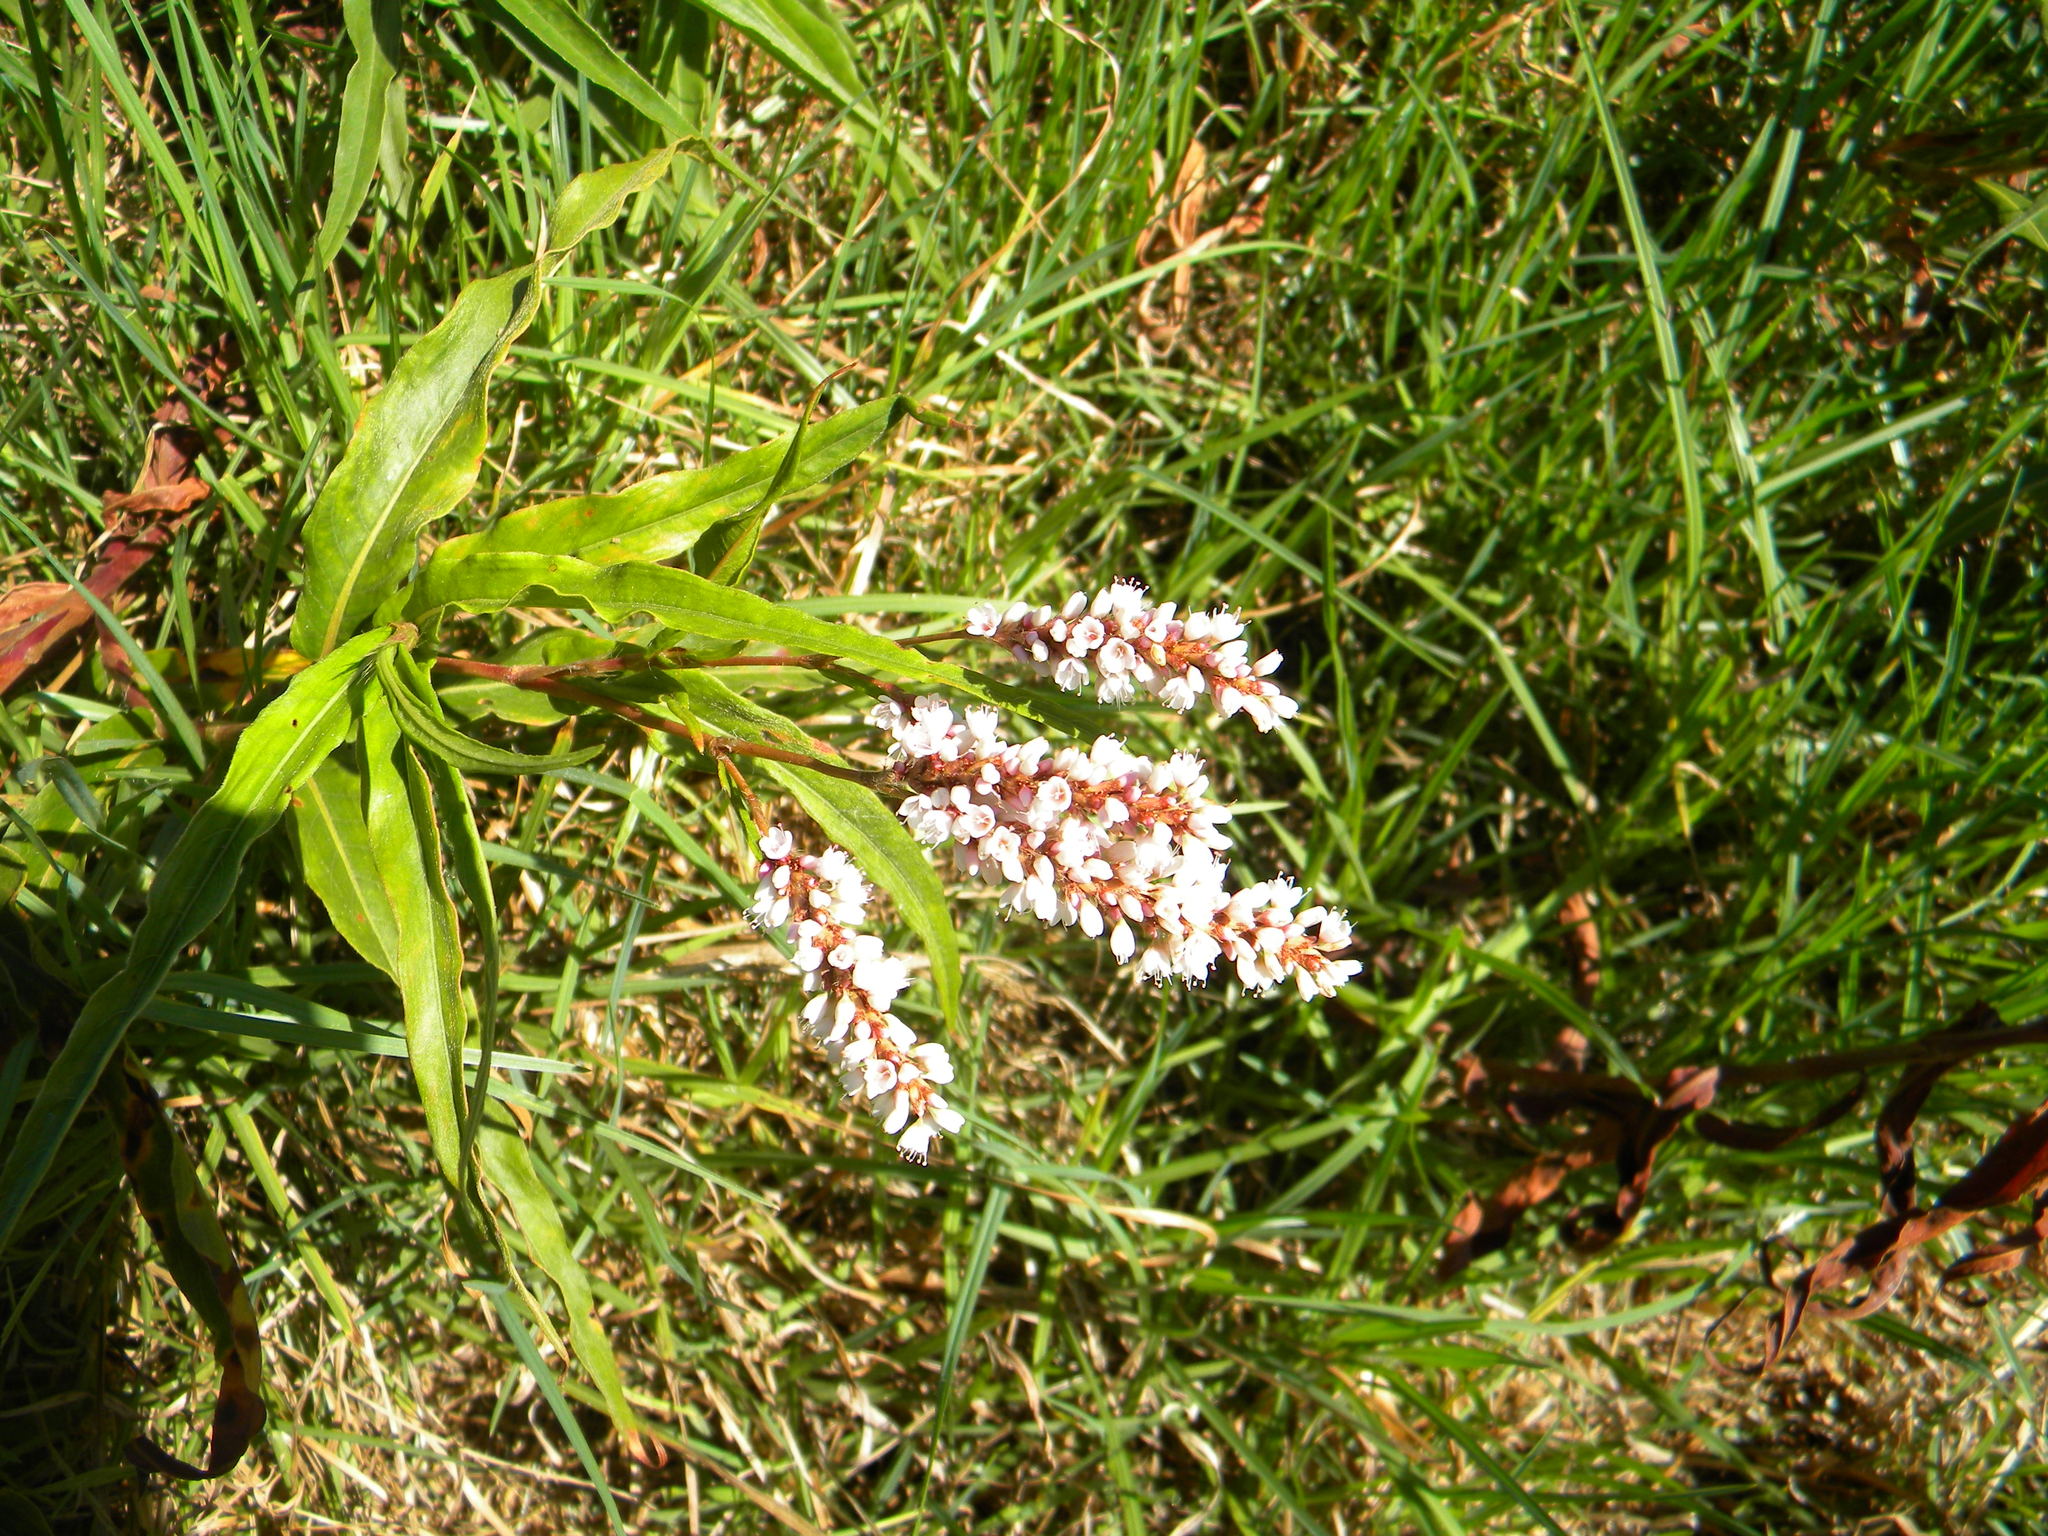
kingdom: Plantae
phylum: Tracheophyta
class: Magnoliopsida
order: Caryophyllales
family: Polygonaceae
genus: Persicaria
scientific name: Persicaria madagascariensis
